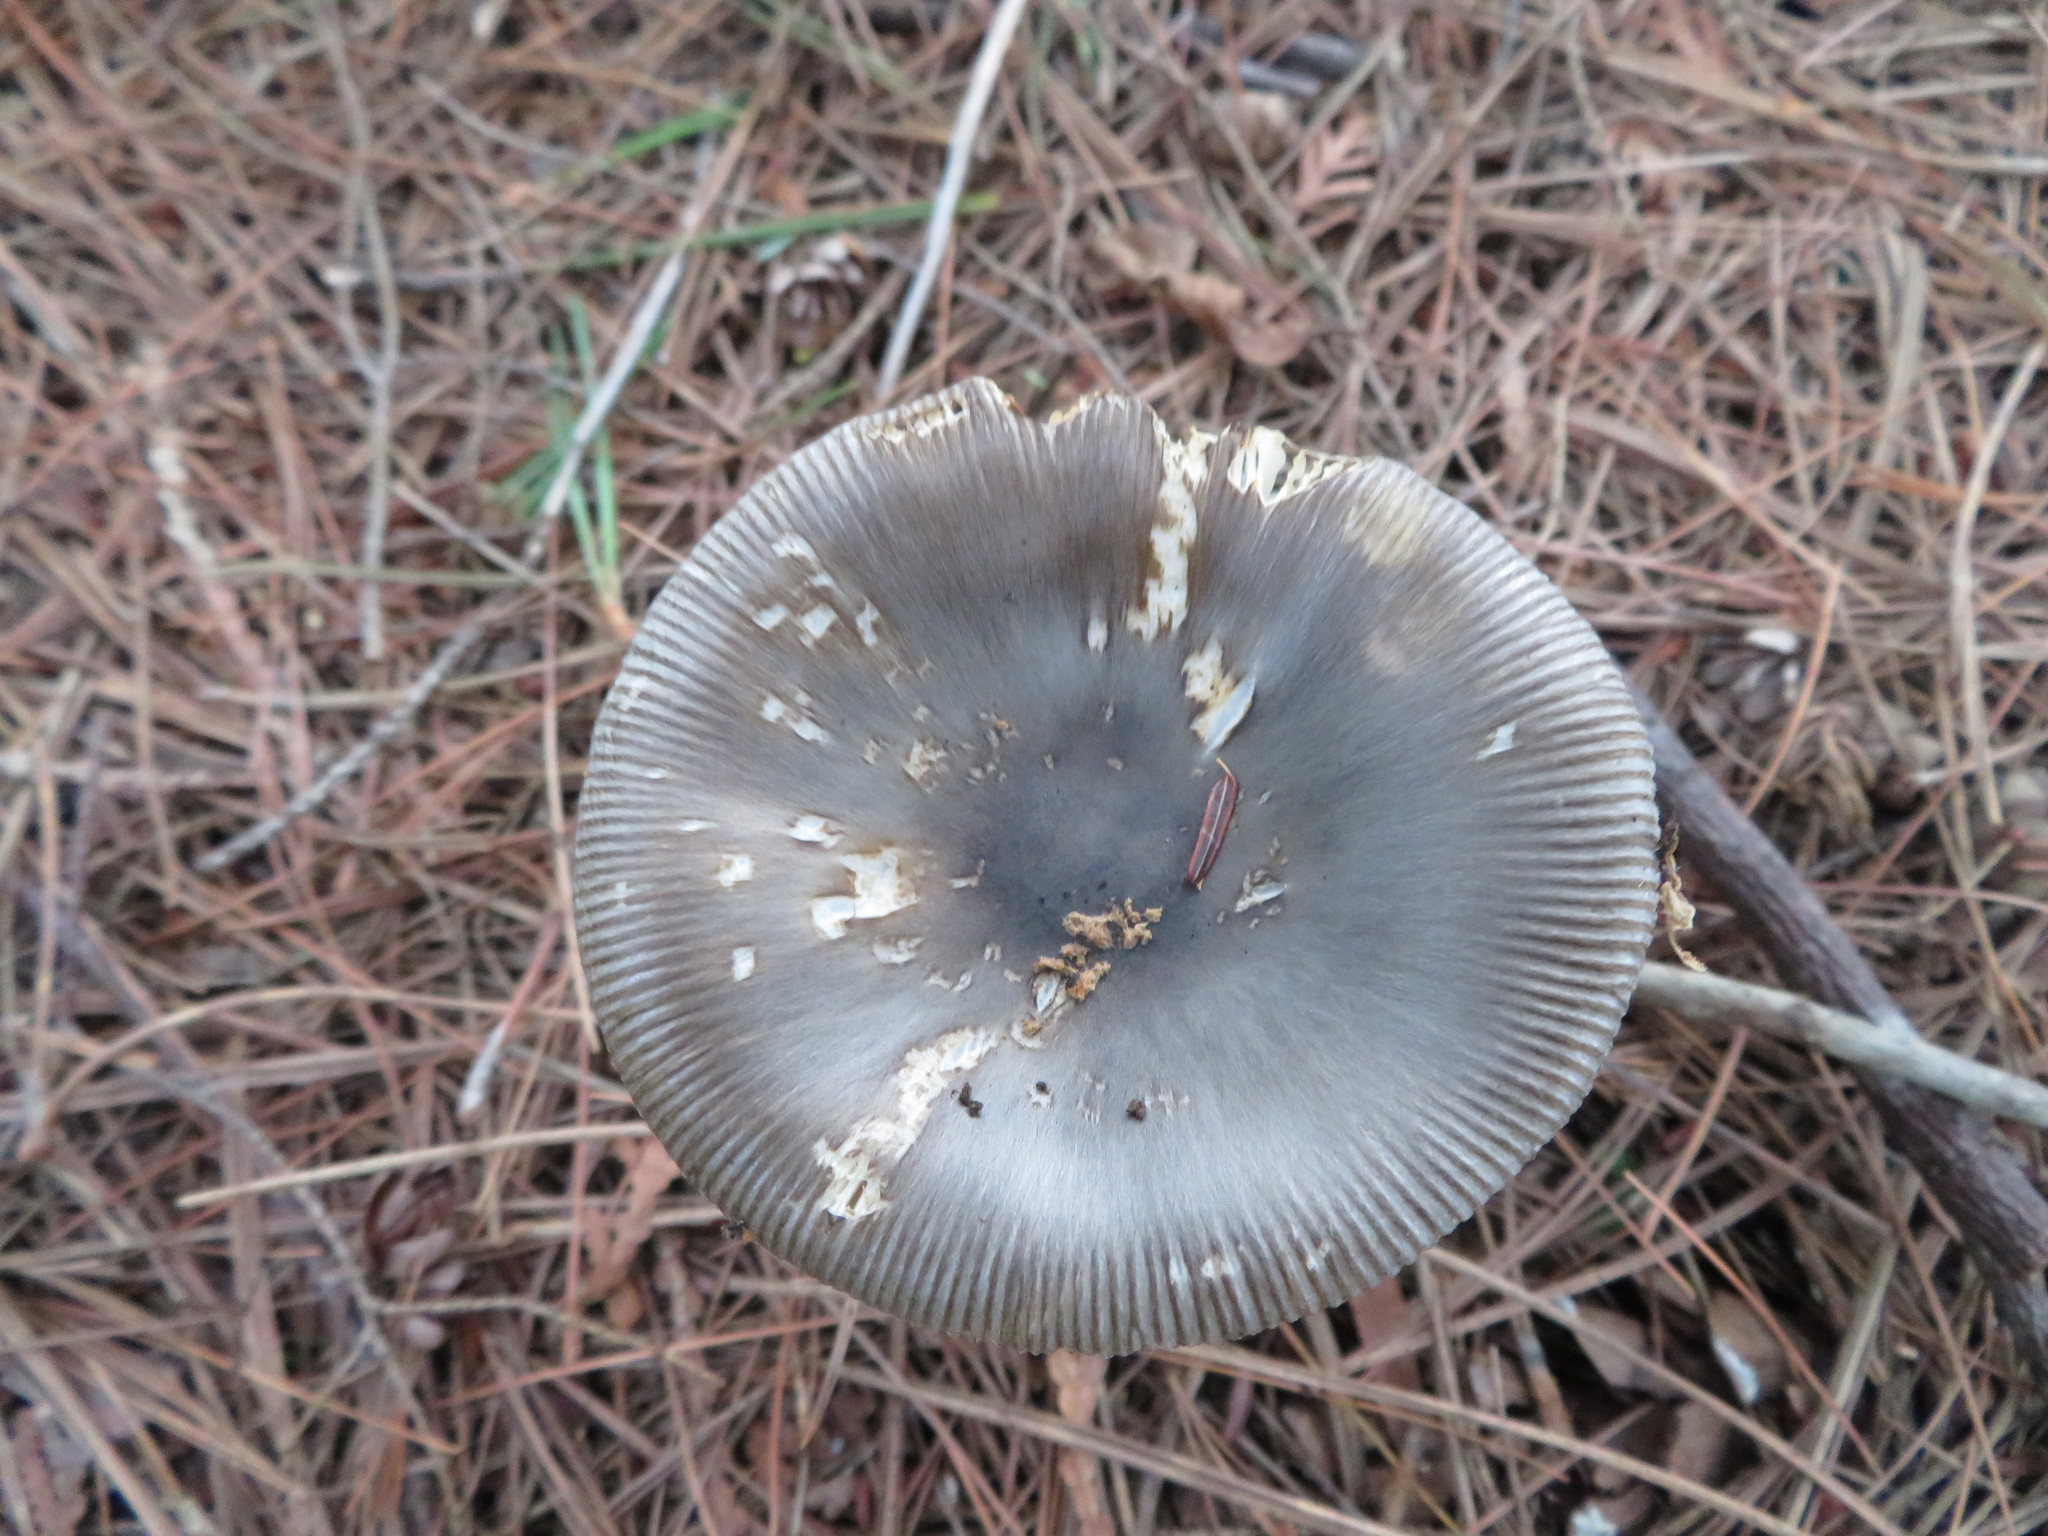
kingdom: Fungi
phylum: Basidiomycota
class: Agaricomycetes
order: Agaricales
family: Amanitaceae
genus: Amanita
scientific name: Amanita vaginata
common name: Grisette
